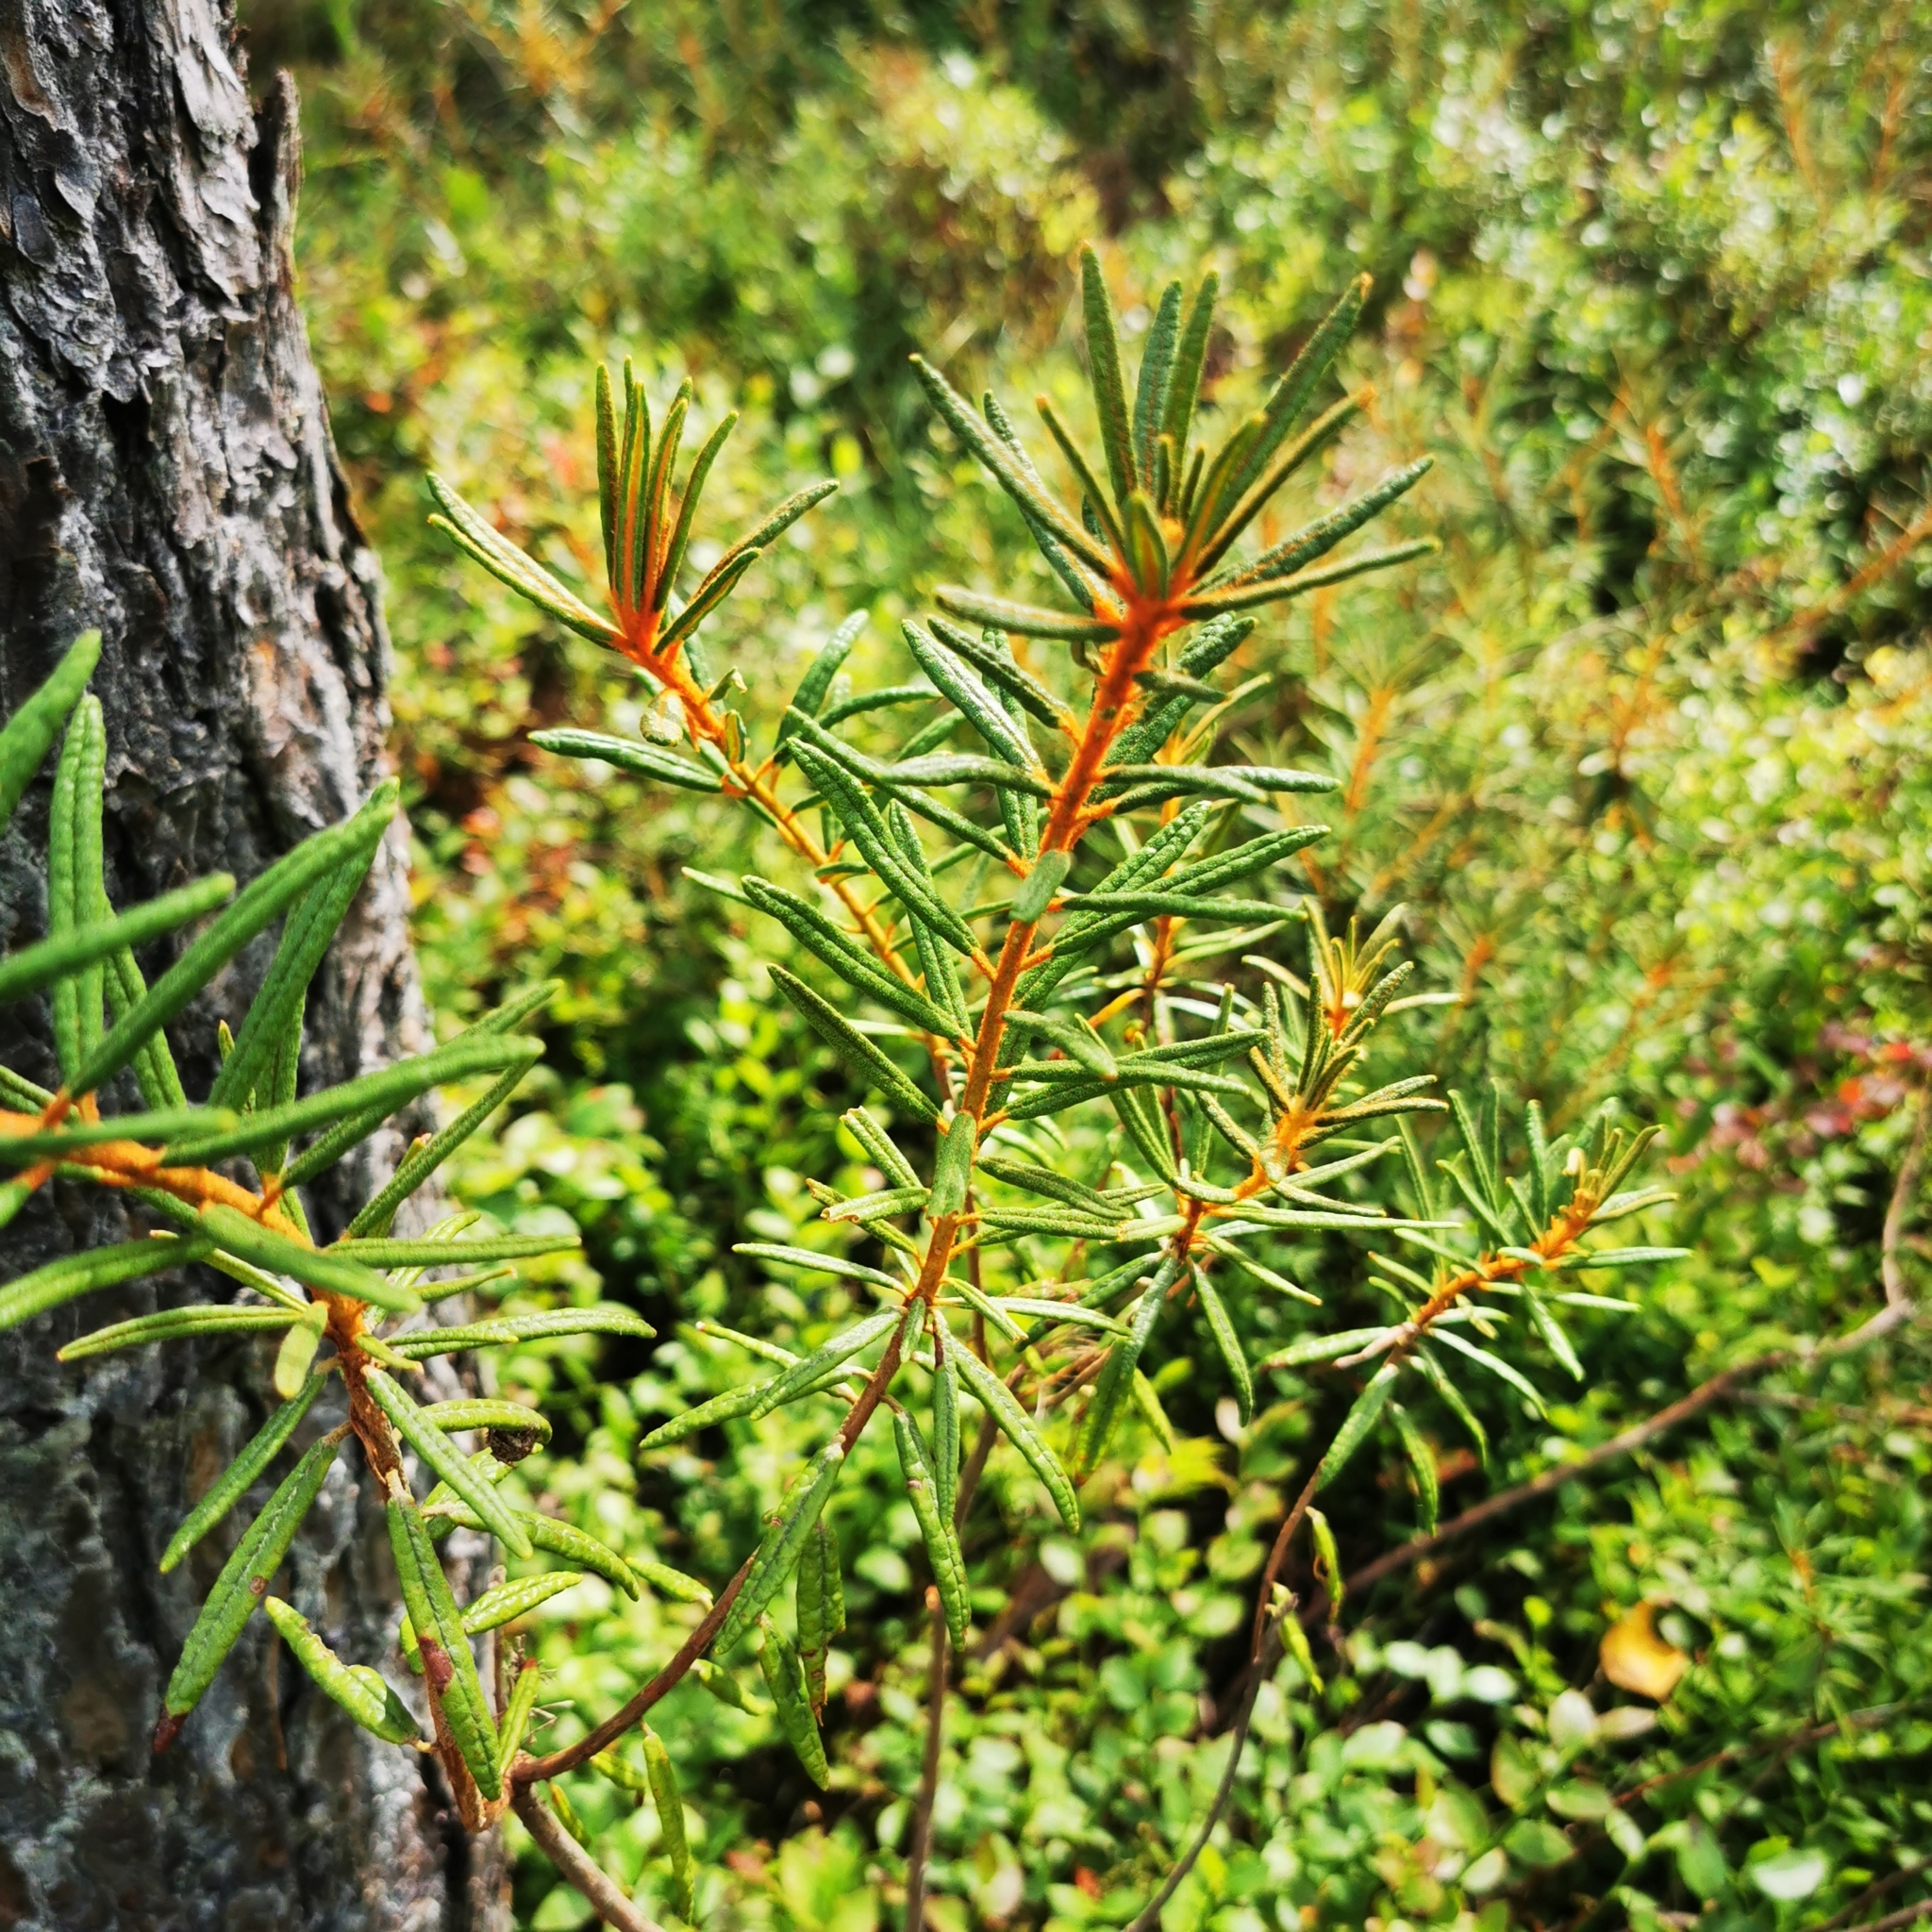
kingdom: Plantae
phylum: Tracheophyta
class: Magnoliopsida
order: Ericales
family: Ericaceae
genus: Rhododendron
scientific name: Rhododendron tomentosum
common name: Marsh labrador tea
